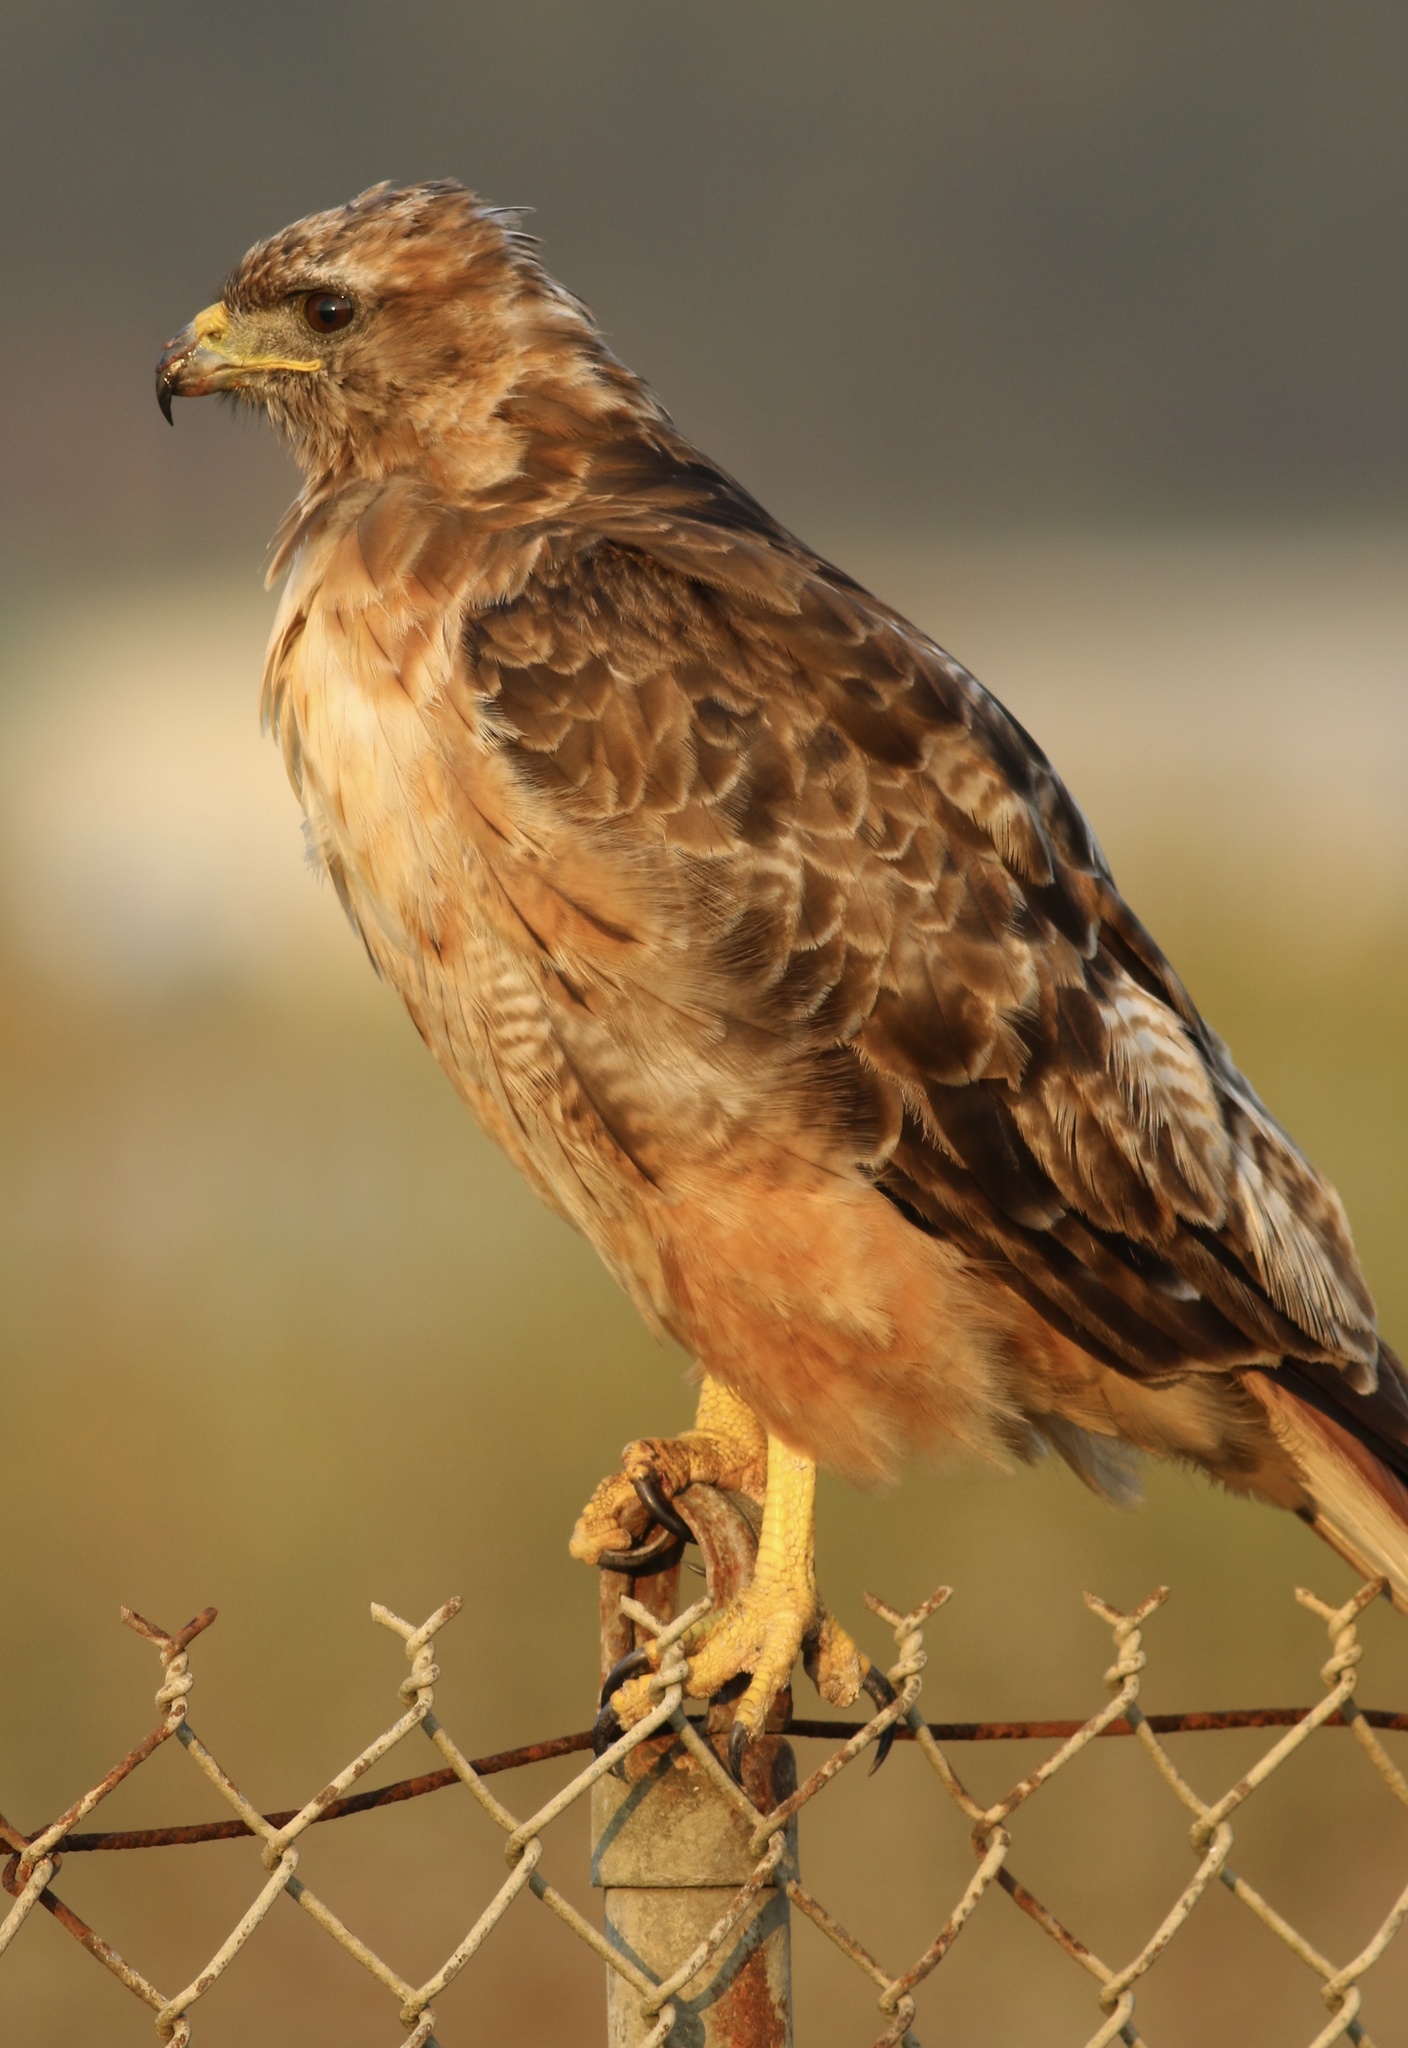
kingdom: Animalia
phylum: Chordata
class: Aves
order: Accipitriformes
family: Accipitridae
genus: Buteo
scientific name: Buteo jamaicensis
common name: Red-tailed hawk
